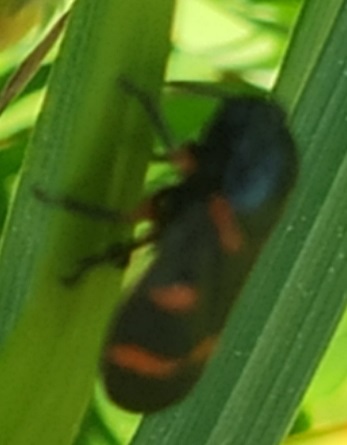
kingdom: Animalia
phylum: Arthropoda
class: Insecta
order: Hemiptera
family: Cercopidae
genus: Cercopis
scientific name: Cercopis intermedia
